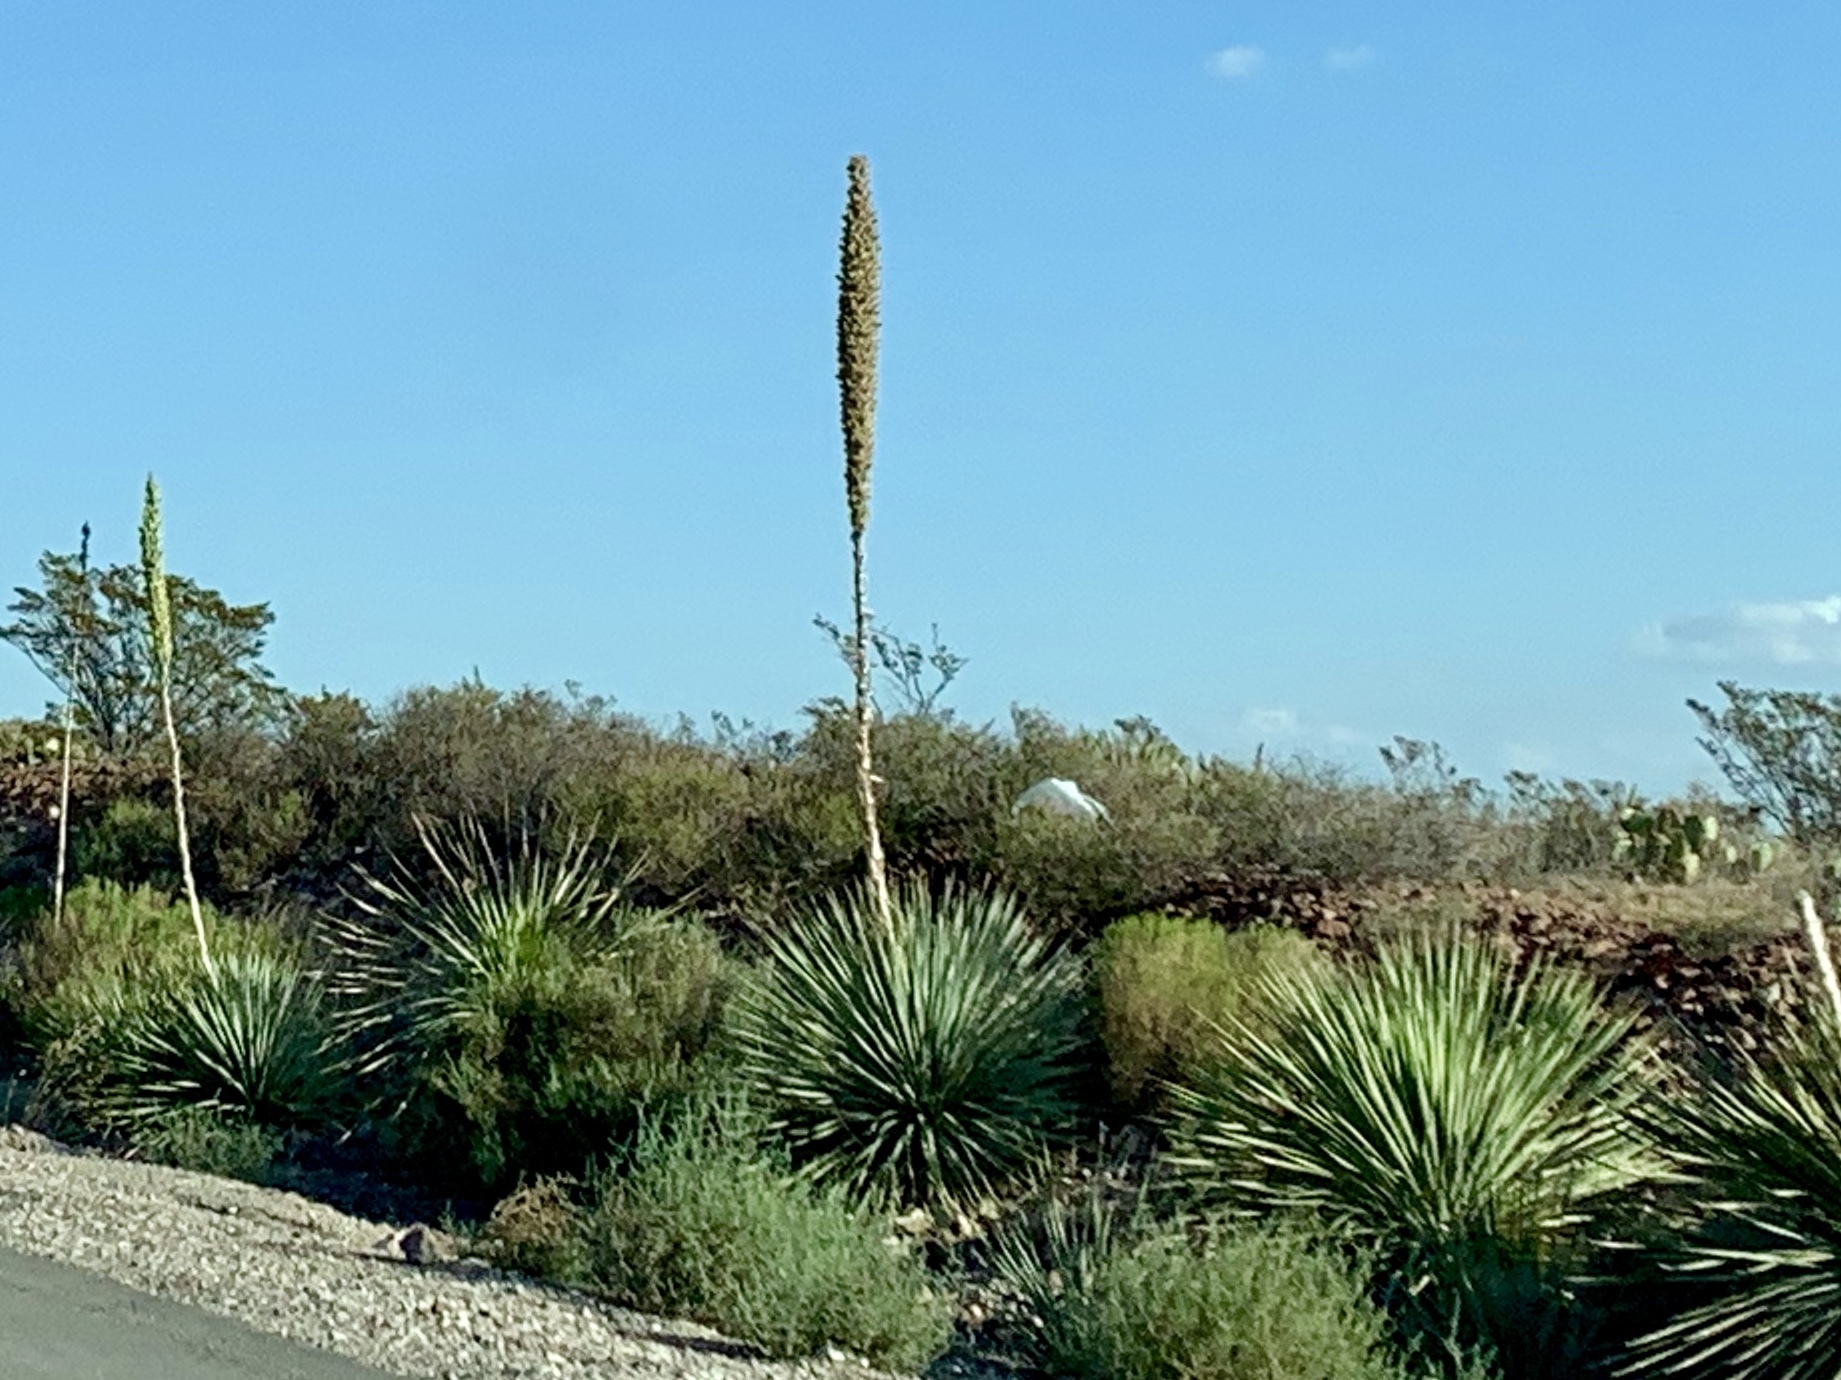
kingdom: Plantae
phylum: Tracheophyta
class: Liliopsida
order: Asparagales
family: Asparagaceae
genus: Dasylirion
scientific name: Dasylirion wheeleri
